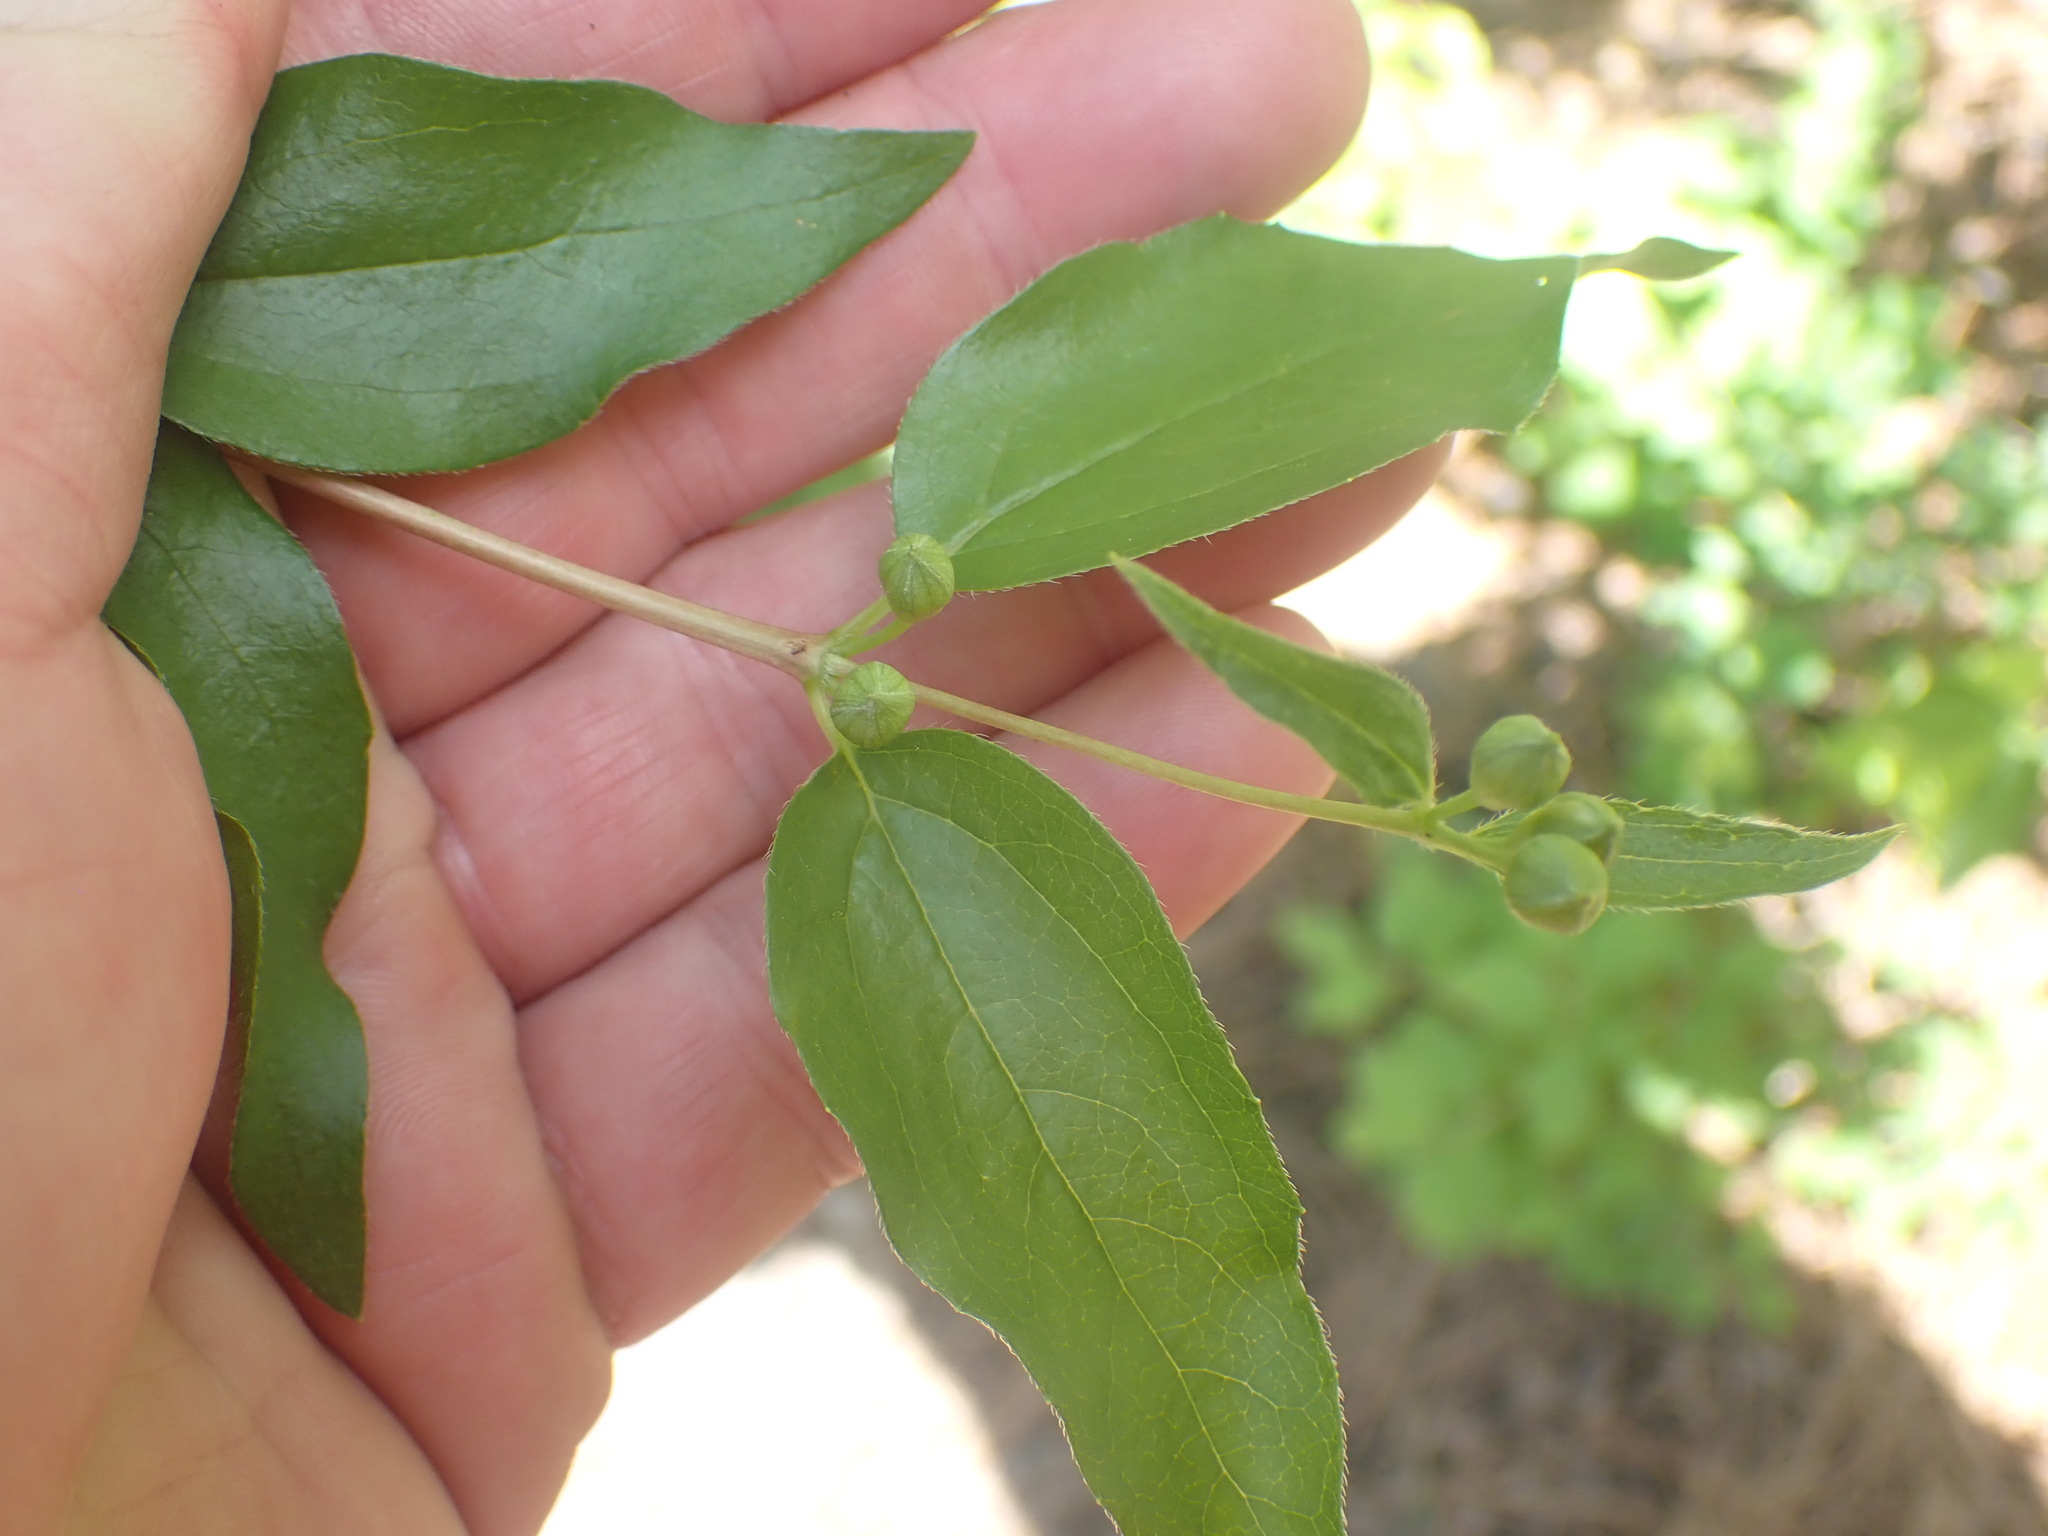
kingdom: Plantae
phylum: Tracheophyta
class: Magnoliopsida
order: Cornales
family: Hydrangeaceae
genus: Philadelphus
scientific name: Philadelphus lewisii
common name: Lewis's mock orange
